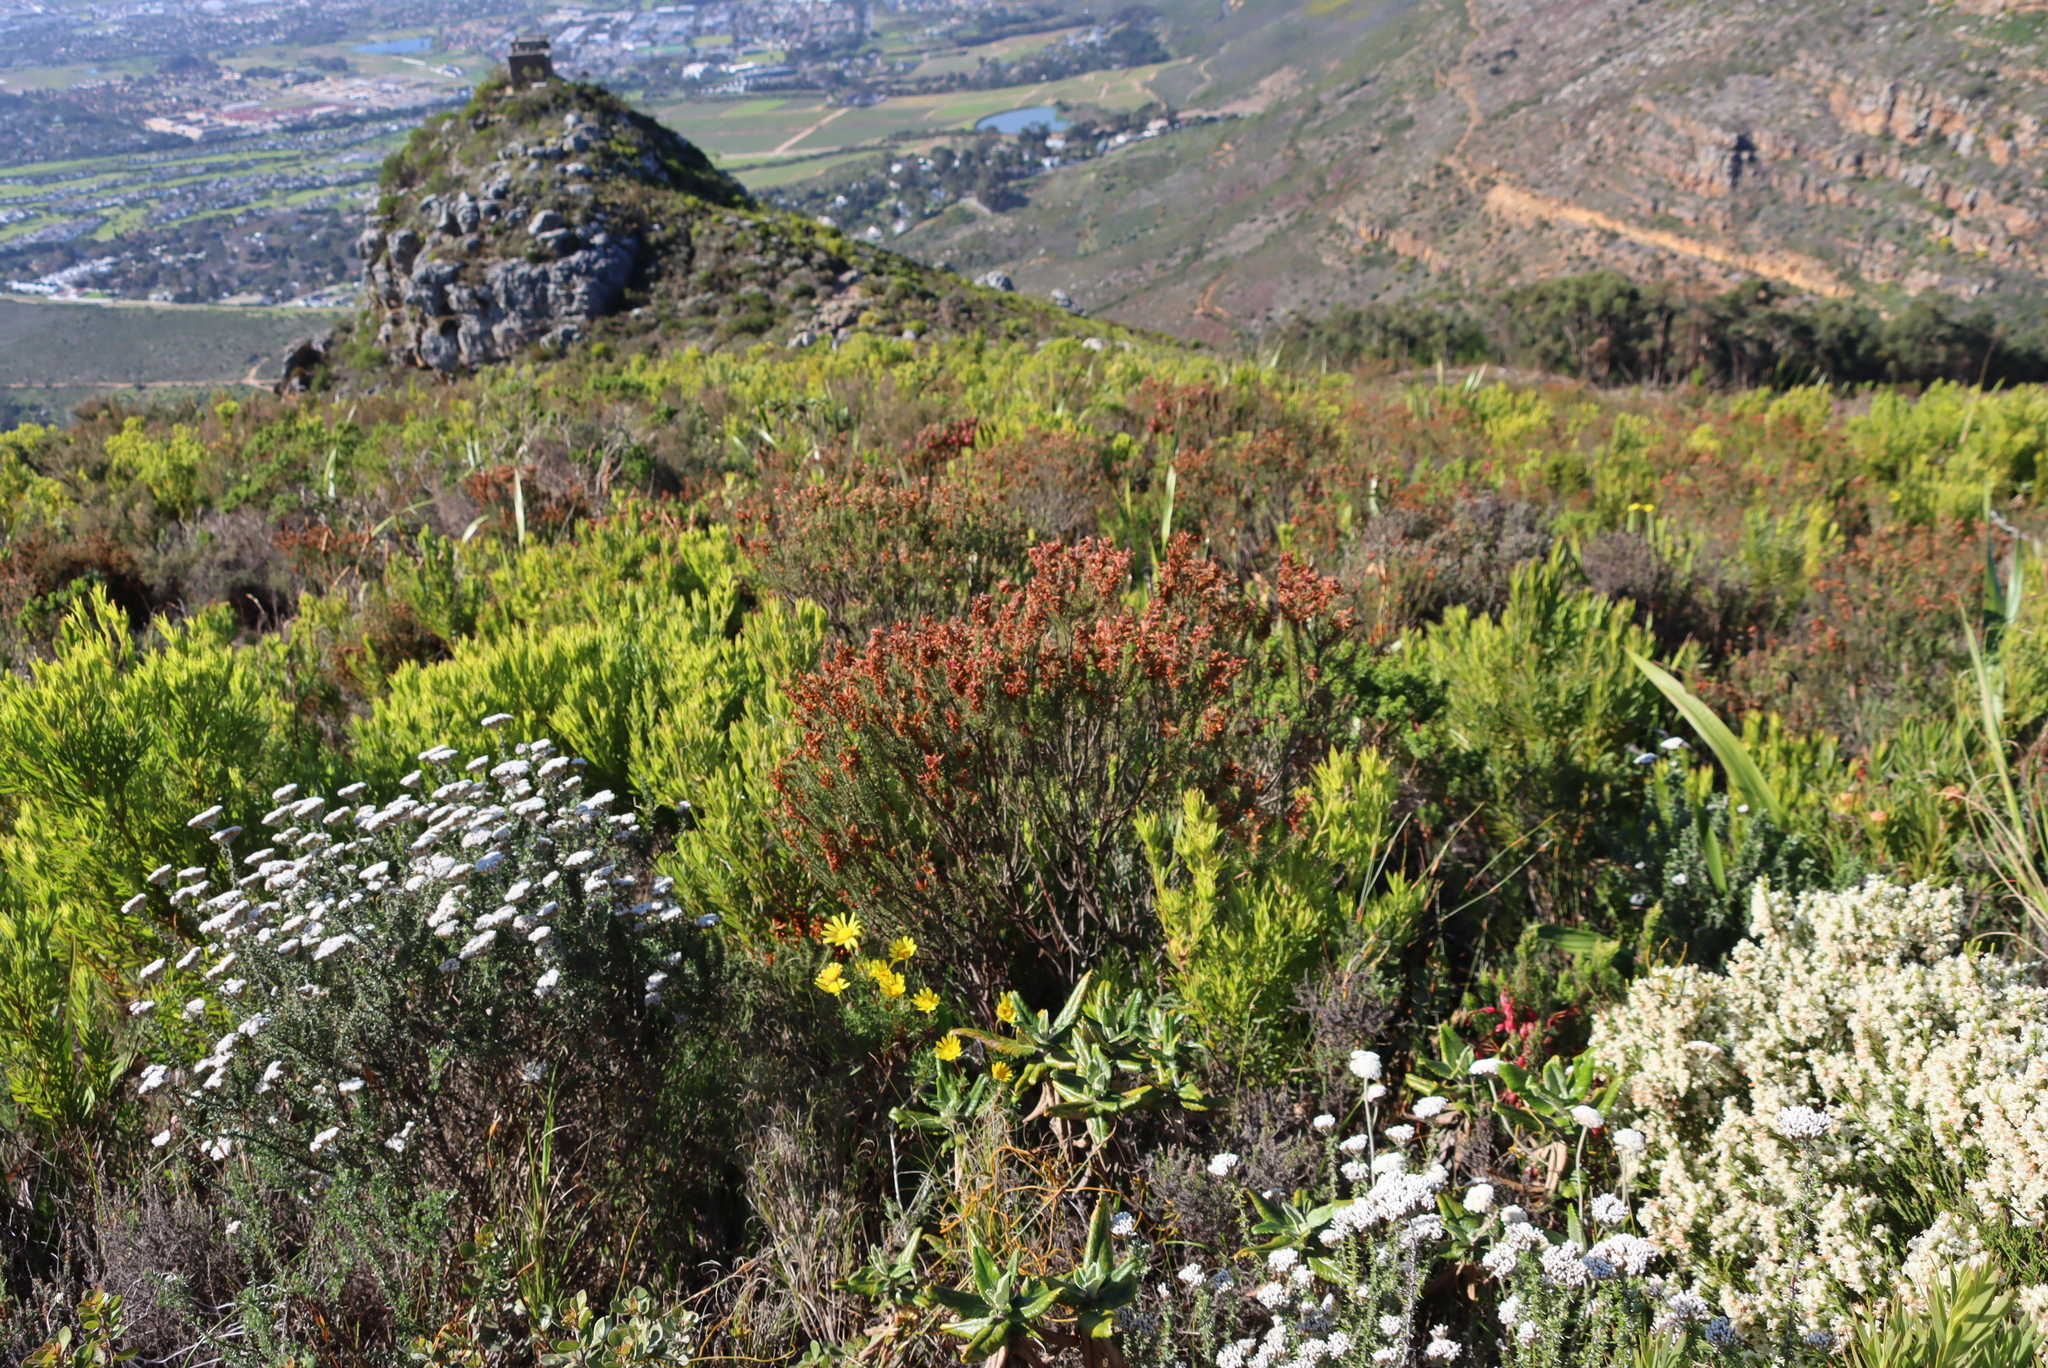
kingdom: Plantae
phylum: Tracheophyta
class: Magnoliopsida
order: Ericales
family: Ericaceae
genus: Erica
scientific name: Erica abietina
